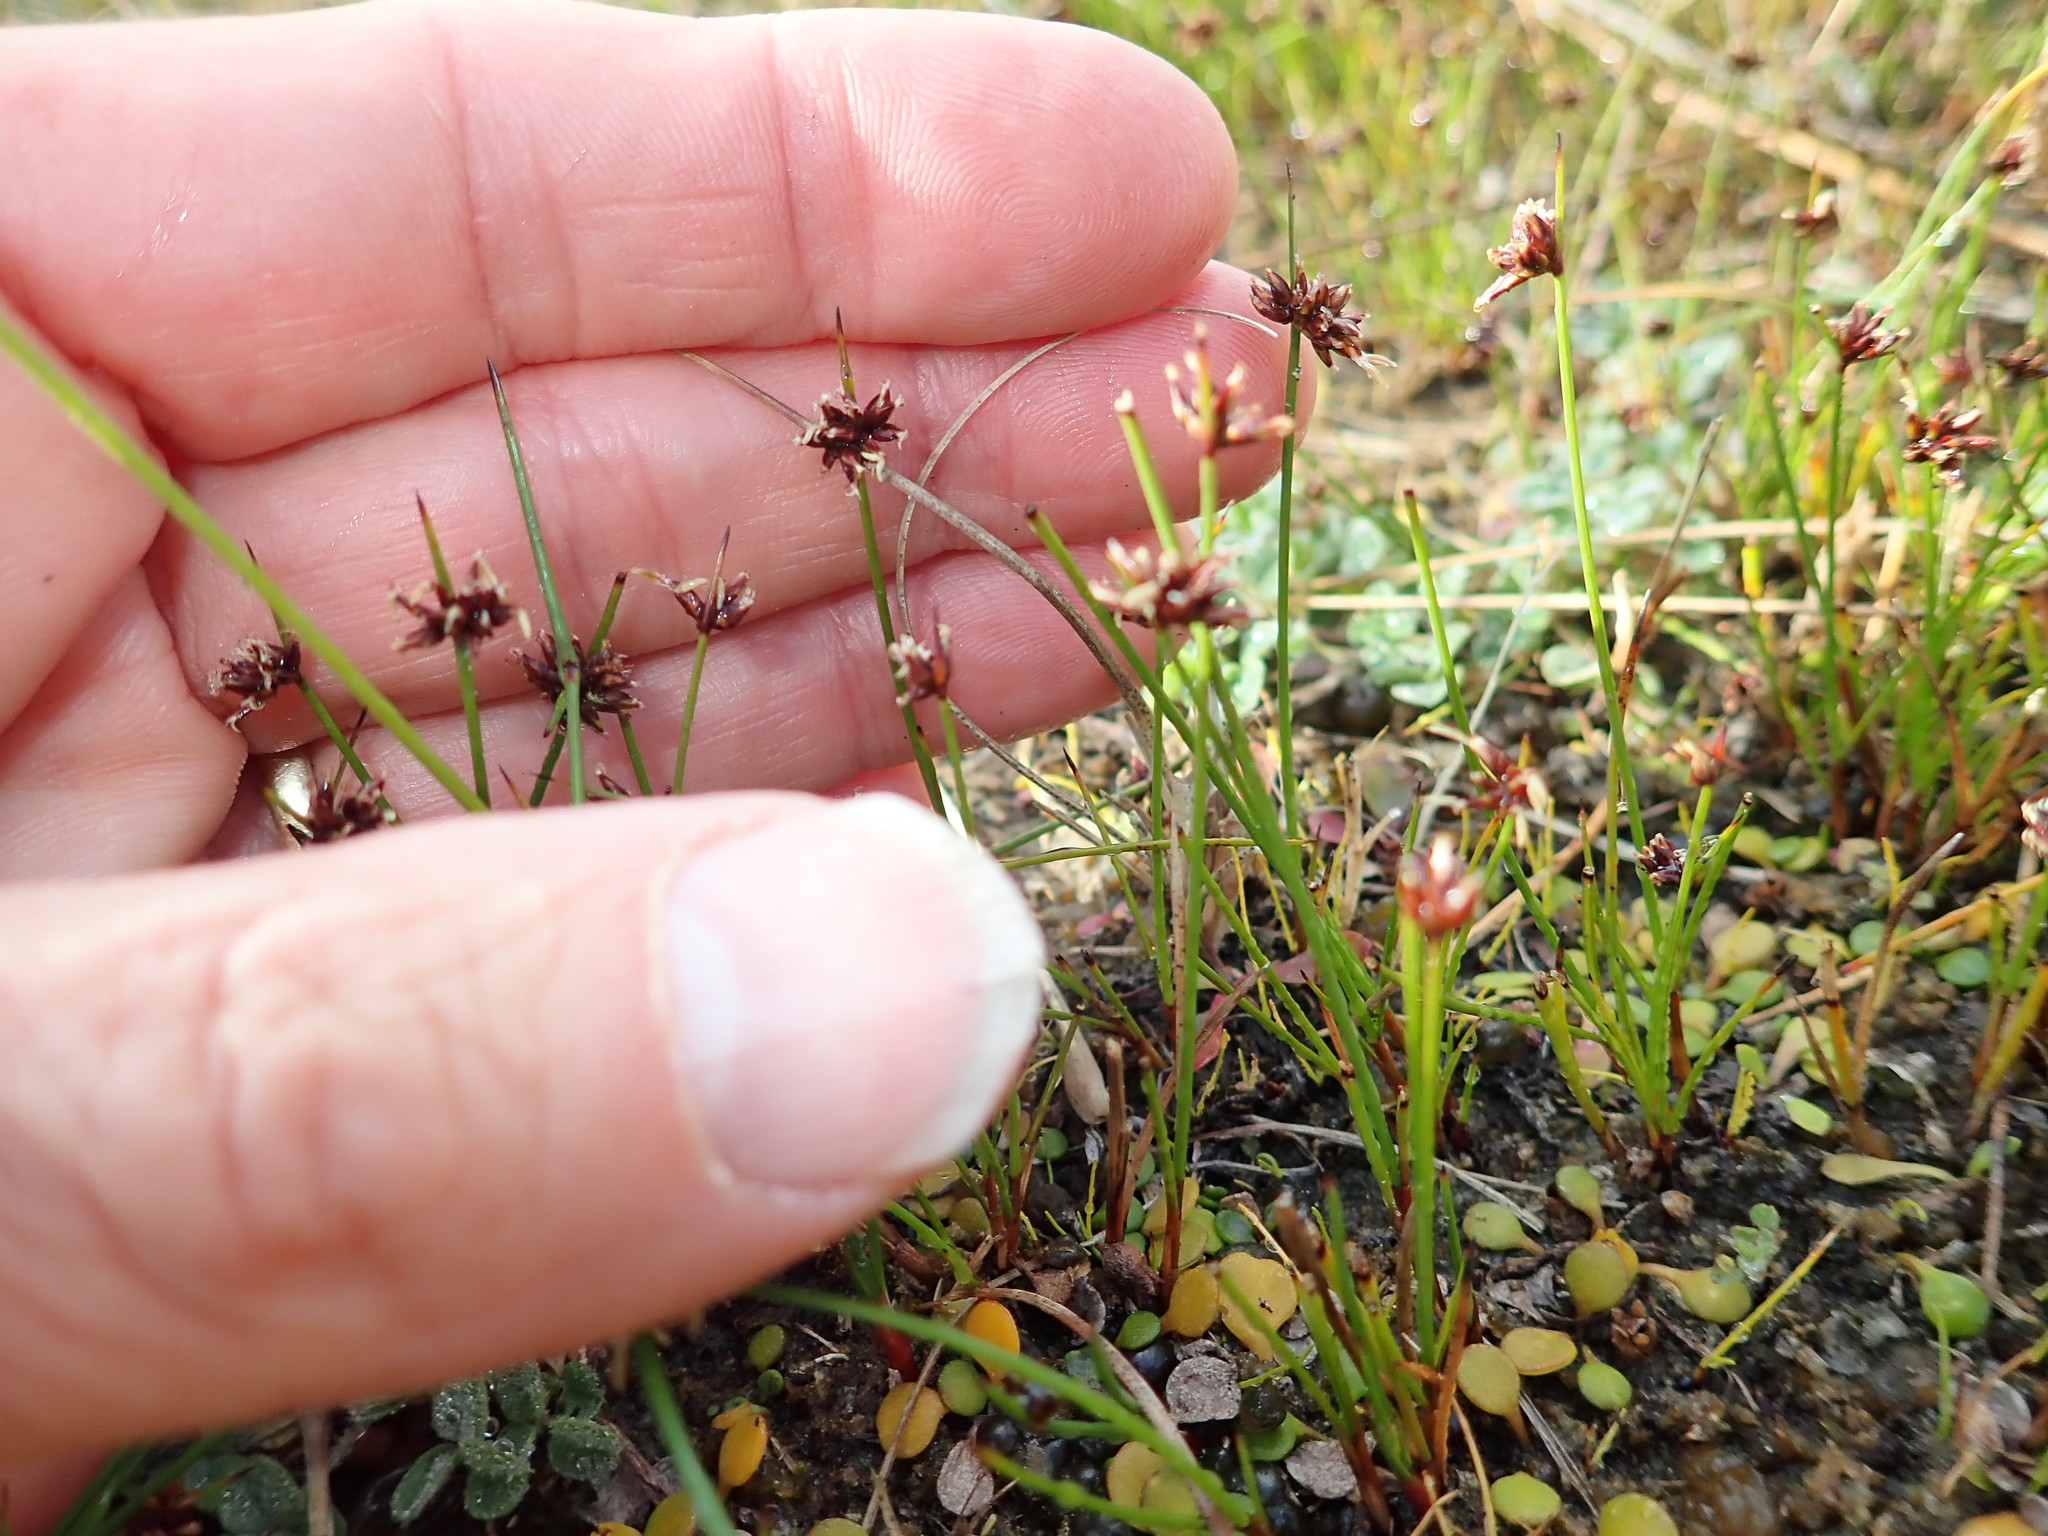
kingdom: Plantae
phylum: Tracheophyta
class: Liliopsida
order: Poales
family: Cyperaceae
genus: Schoenus
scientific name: Schoenus nitens
